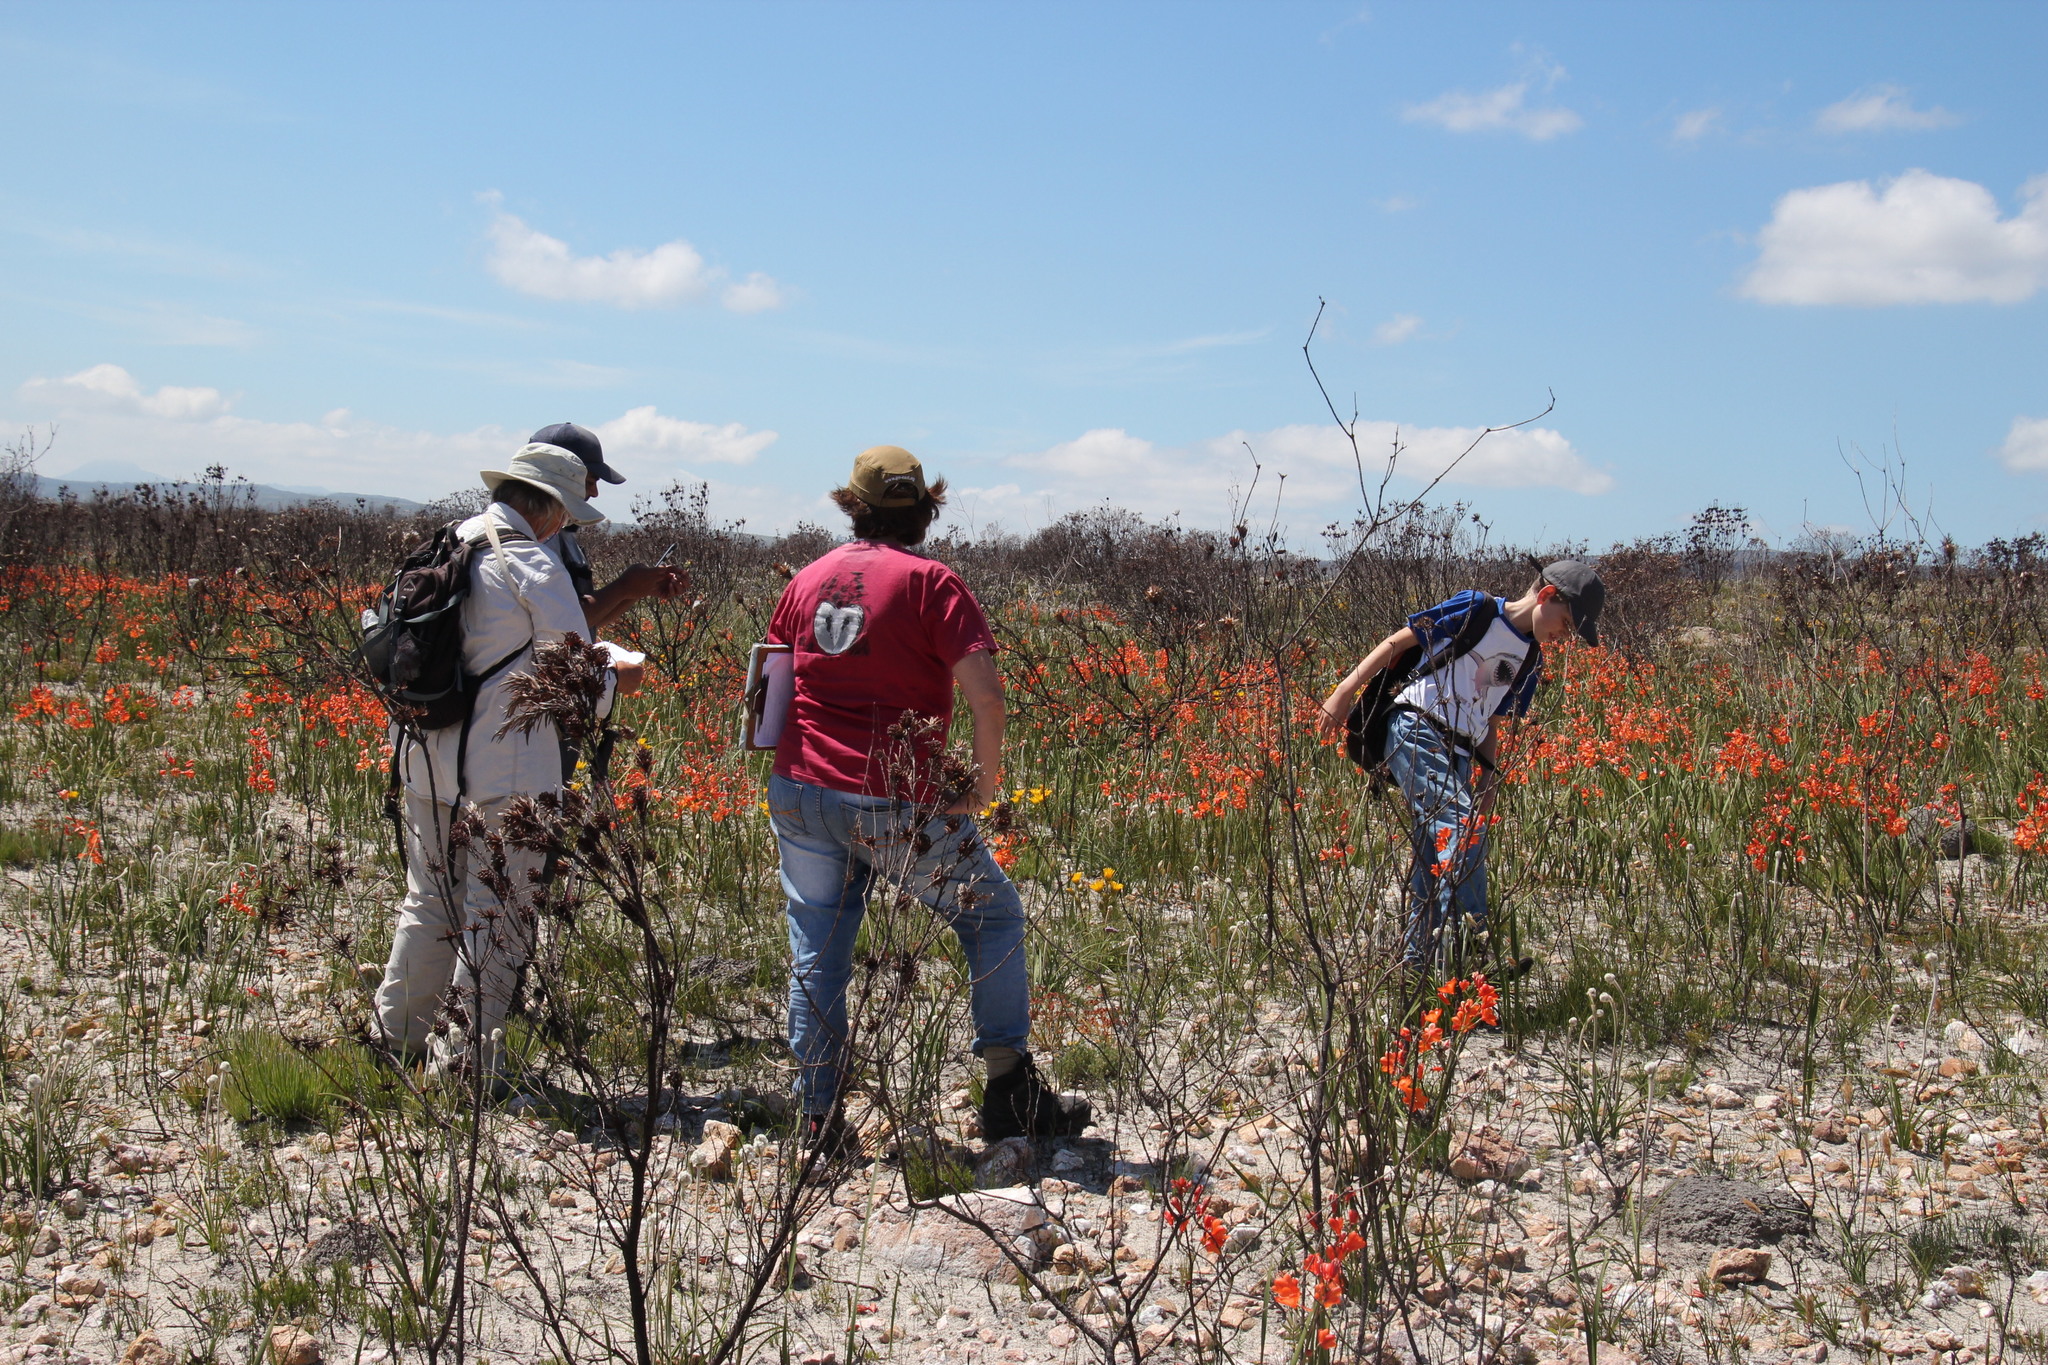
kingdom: Plantae
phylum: Tracheophyta
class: Liliopsida
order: Asparagales
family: Iridaceae
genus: Pillansia
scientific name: Pillansia templemannii
